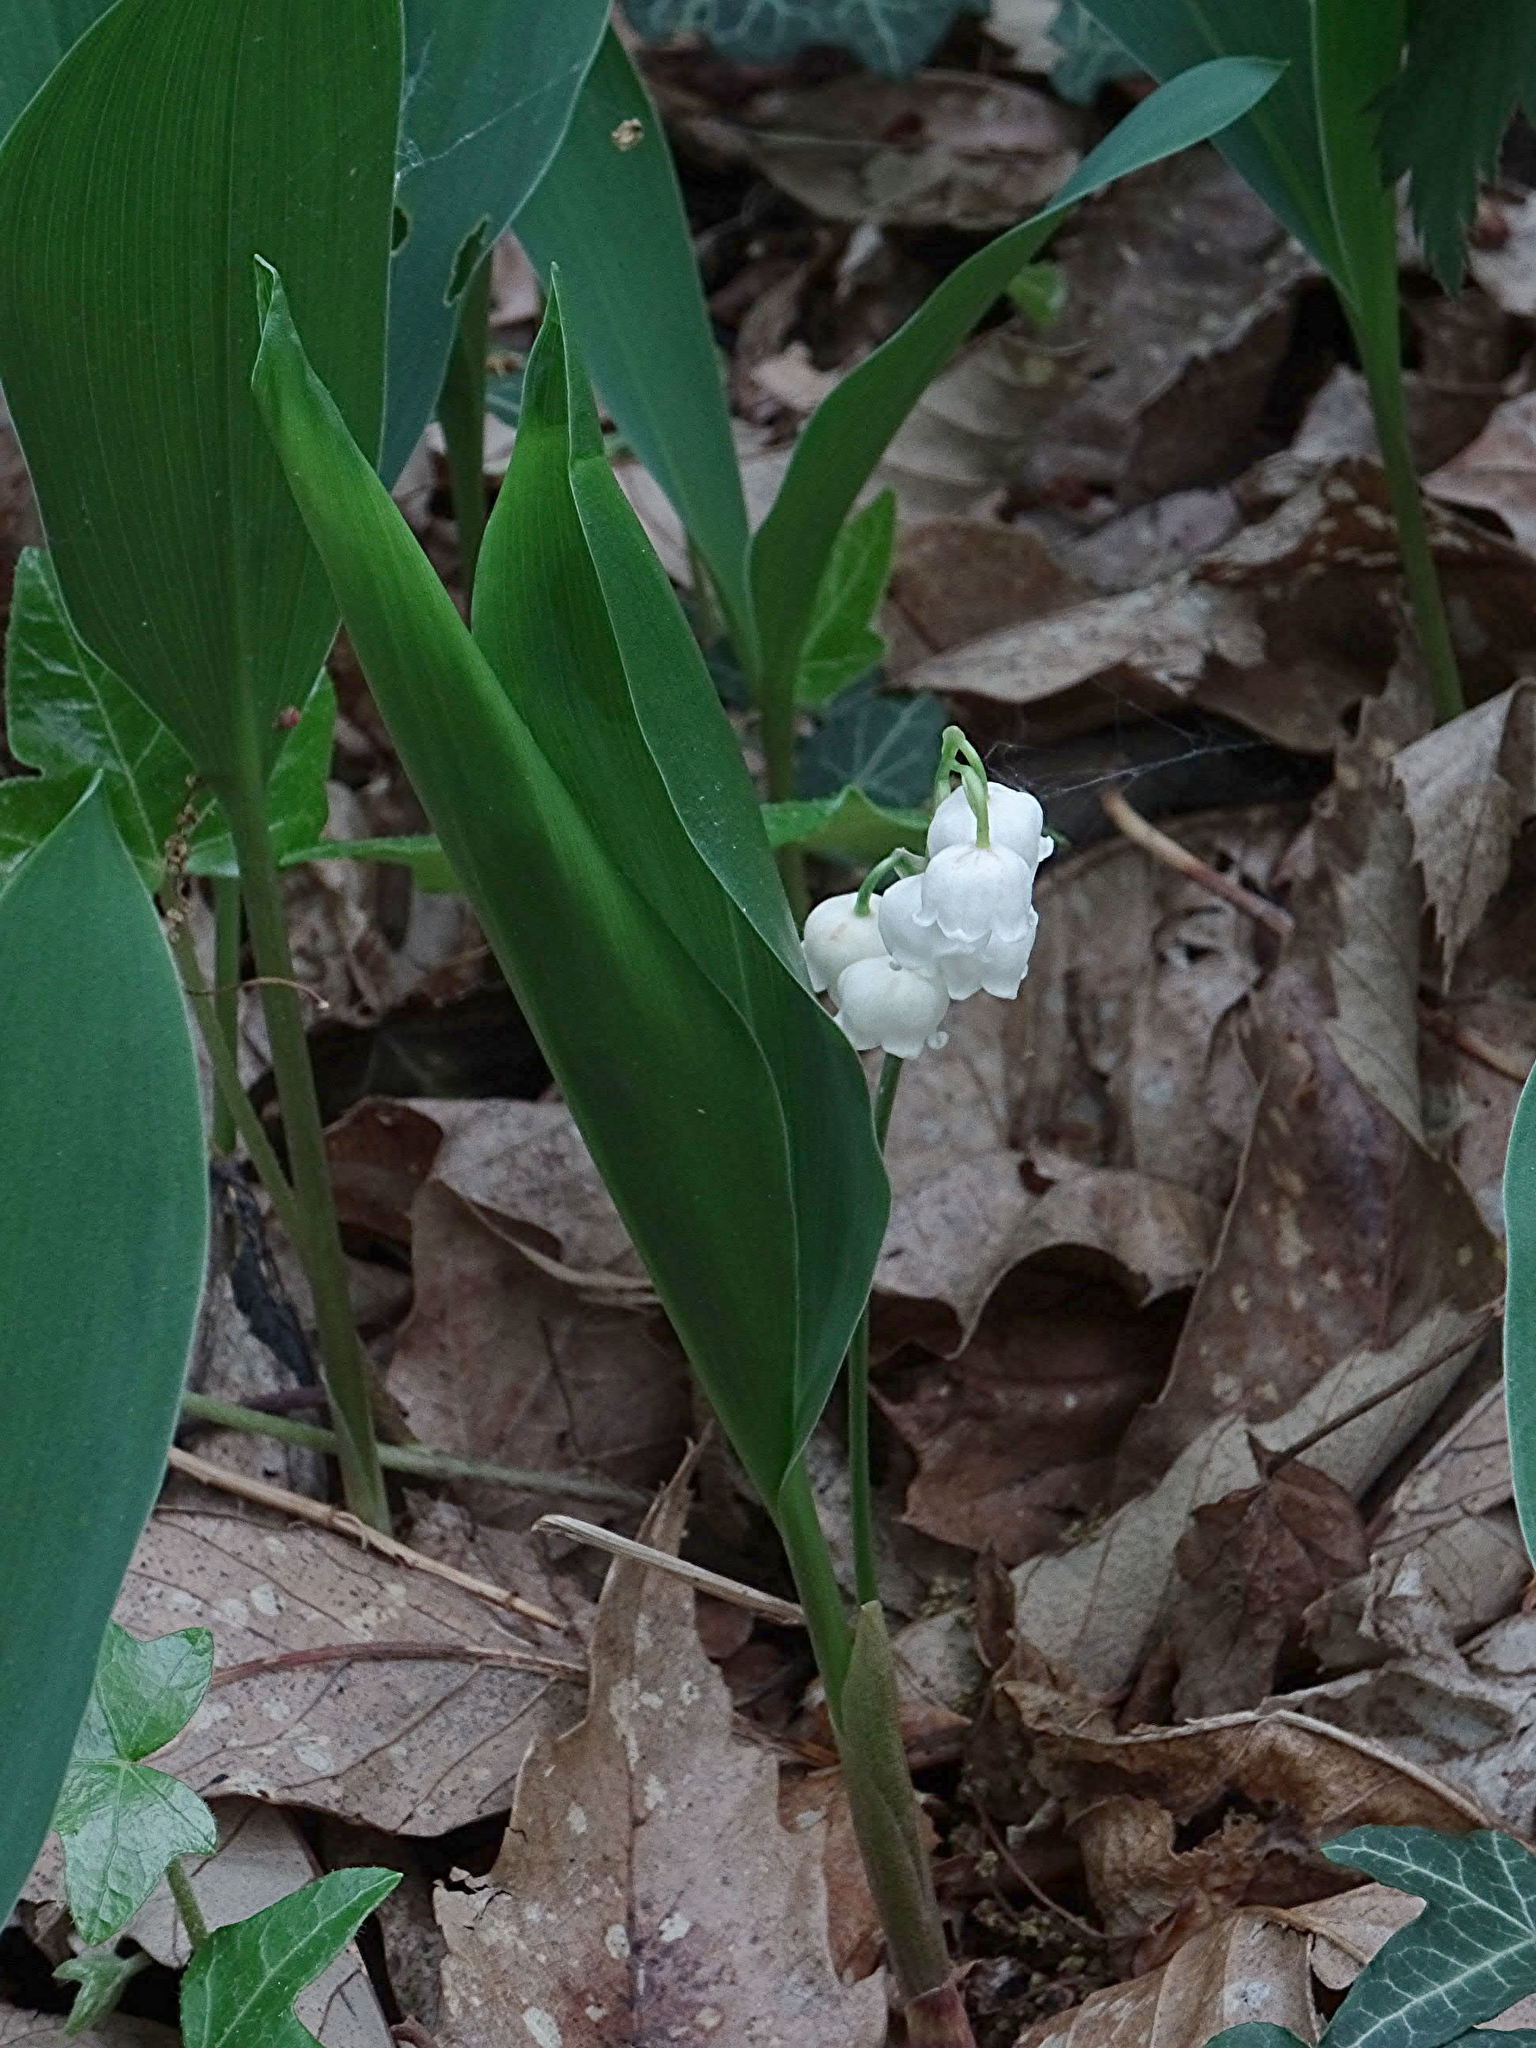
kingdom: Plantae
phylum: Tracheophyta
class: Liliopsida
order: Asparagales
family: Asparagaceae
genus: Convallaria
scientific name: Convallaria majalis
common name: Lily-of-the-valley
